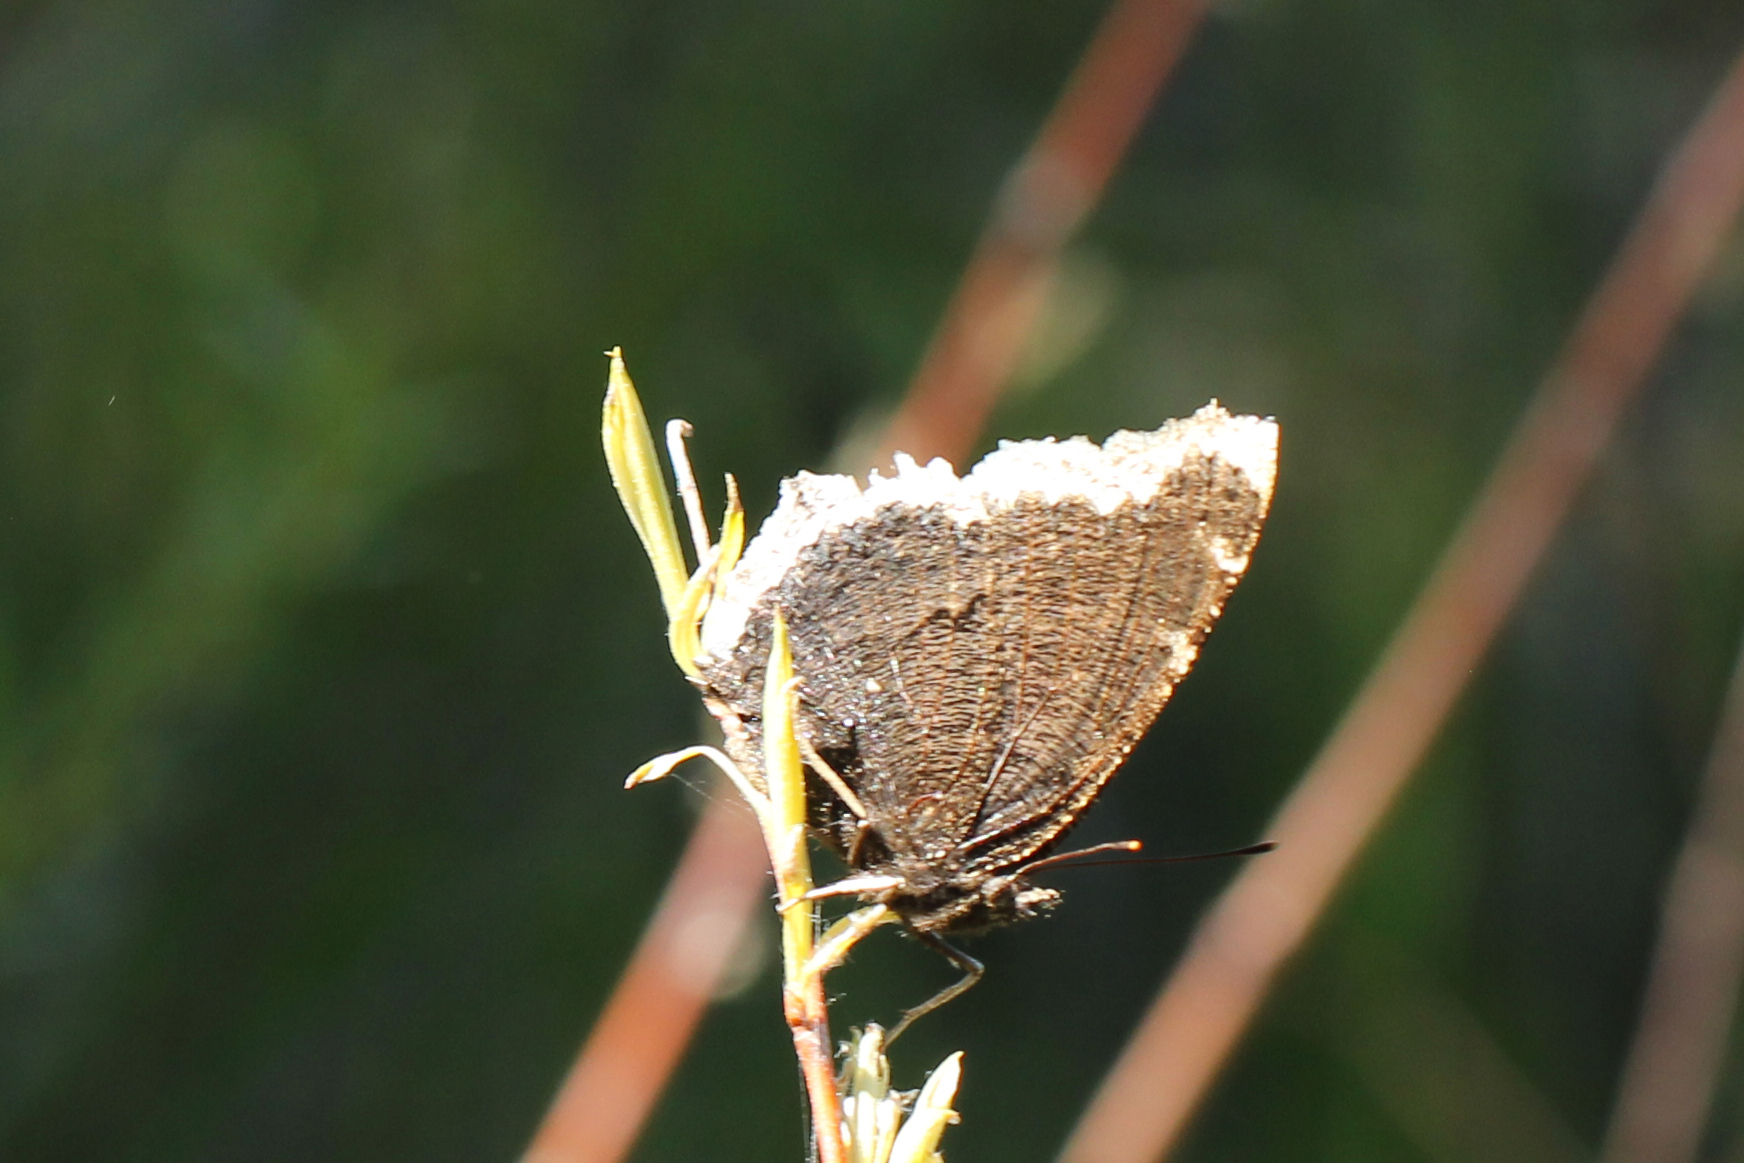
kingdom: Animalia
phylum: Arthropoda
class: Insecta
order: Lepidoptera
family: Nymphalidae
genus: Nymphalis
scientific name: Nymphalis antiopa
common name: Camberwell beauty
